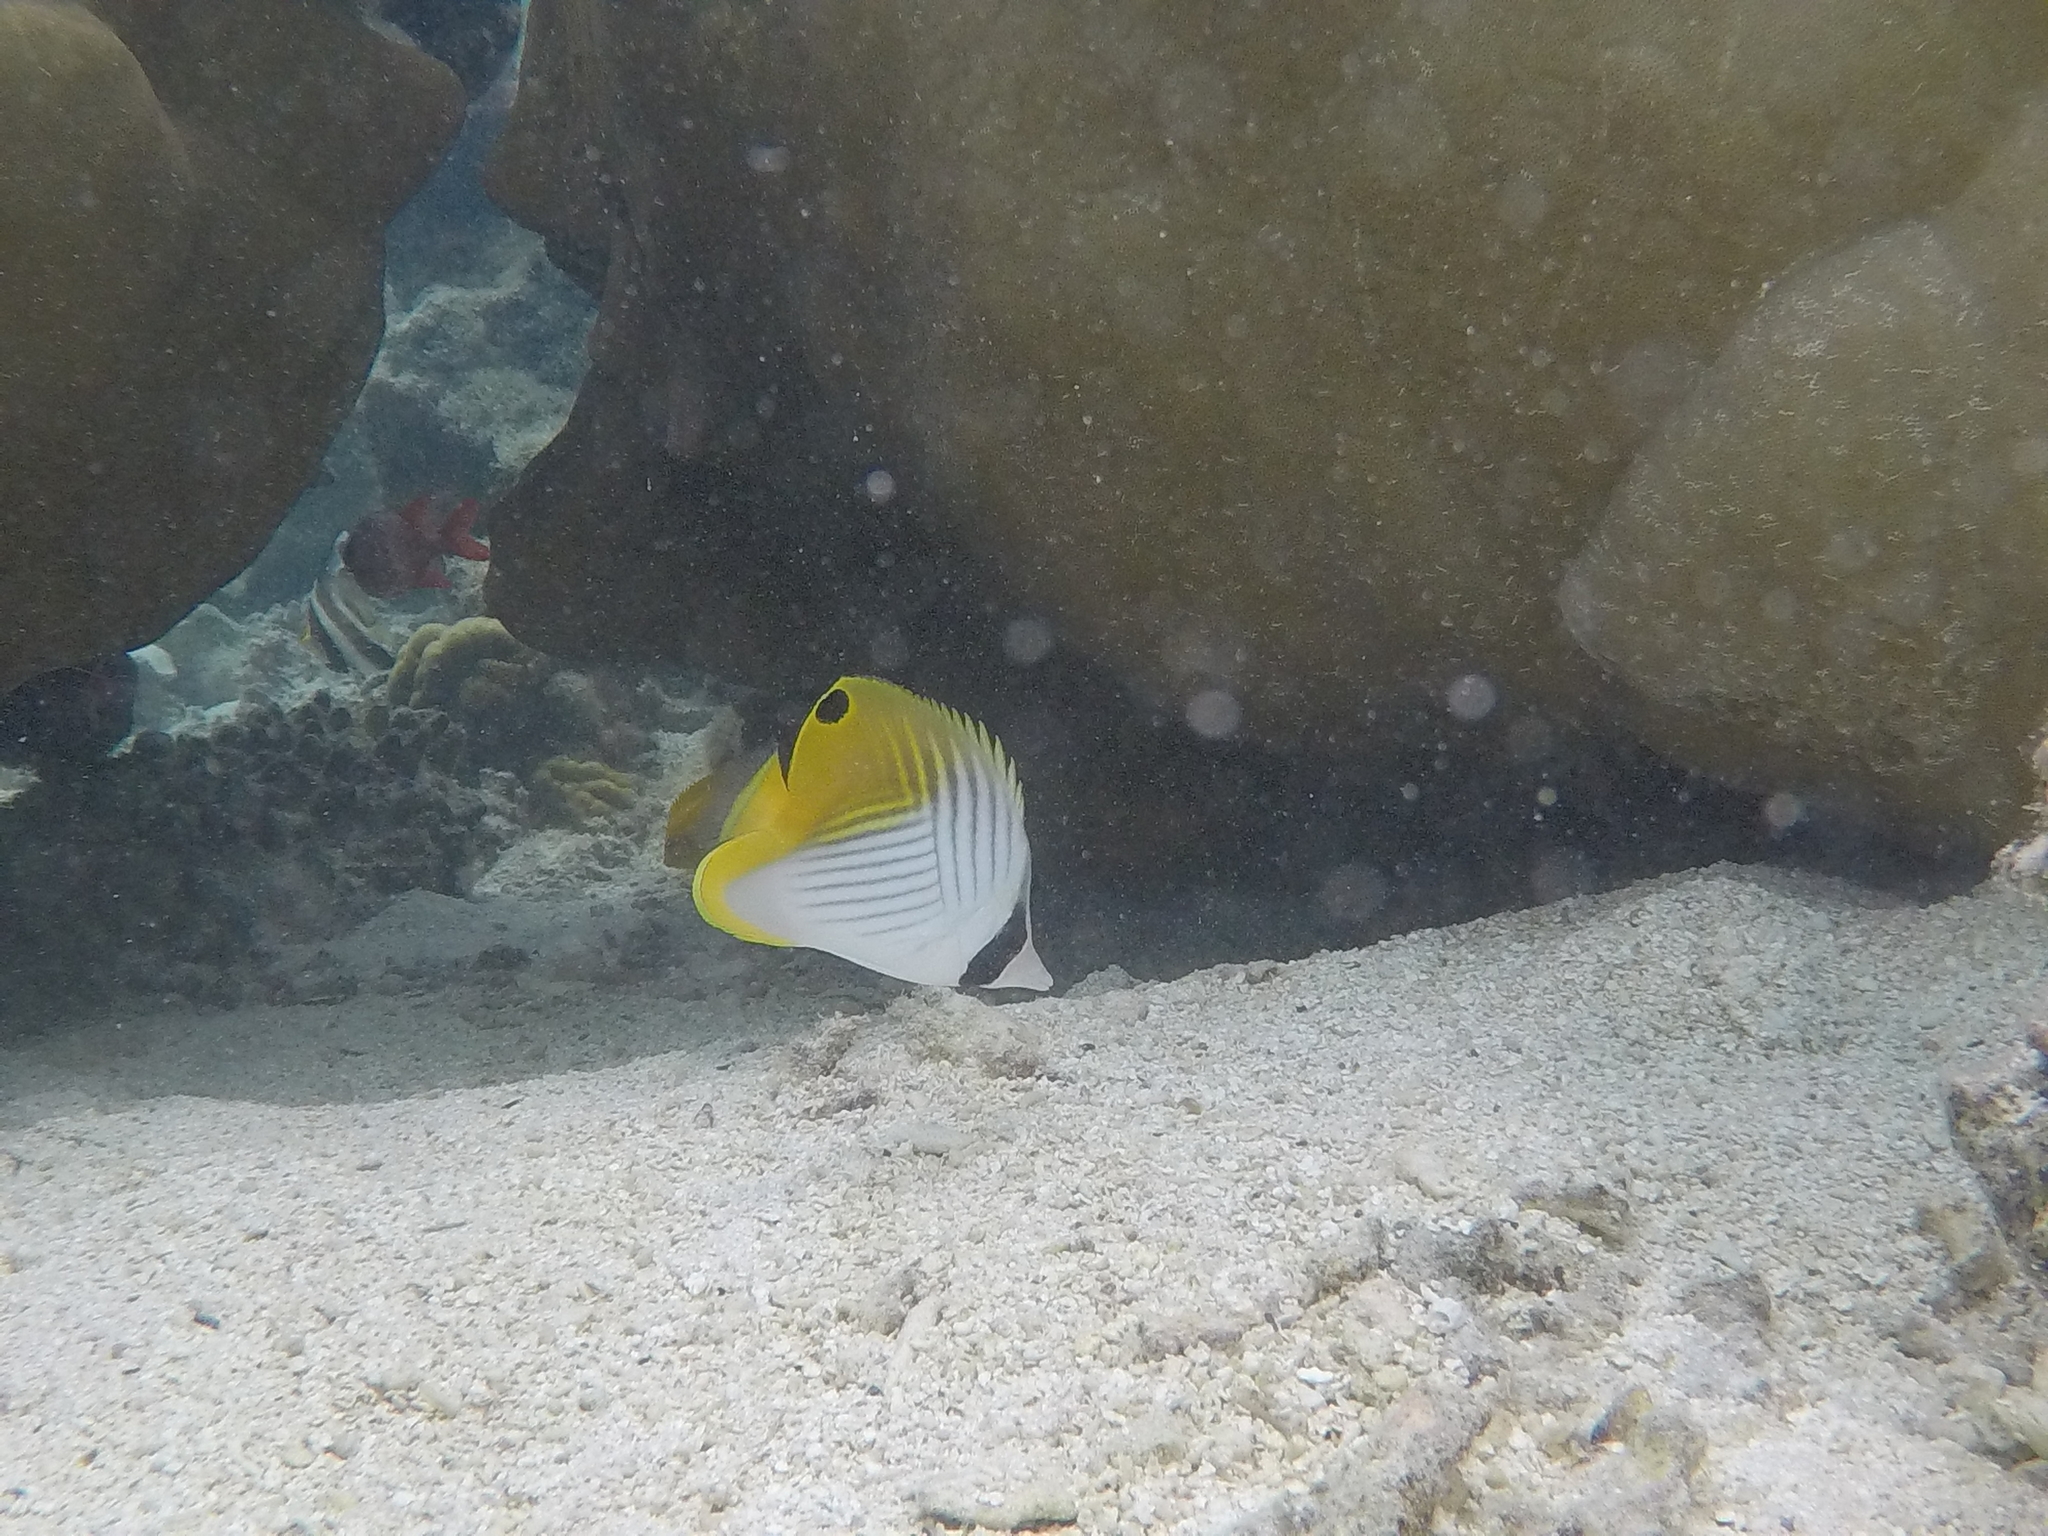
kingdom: Animalia
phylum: Chordata
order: Perciformes
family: Chaetodontidae
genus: Chaetodon
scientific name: Chaetodon auriga
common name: Threadfin butterflyfish
